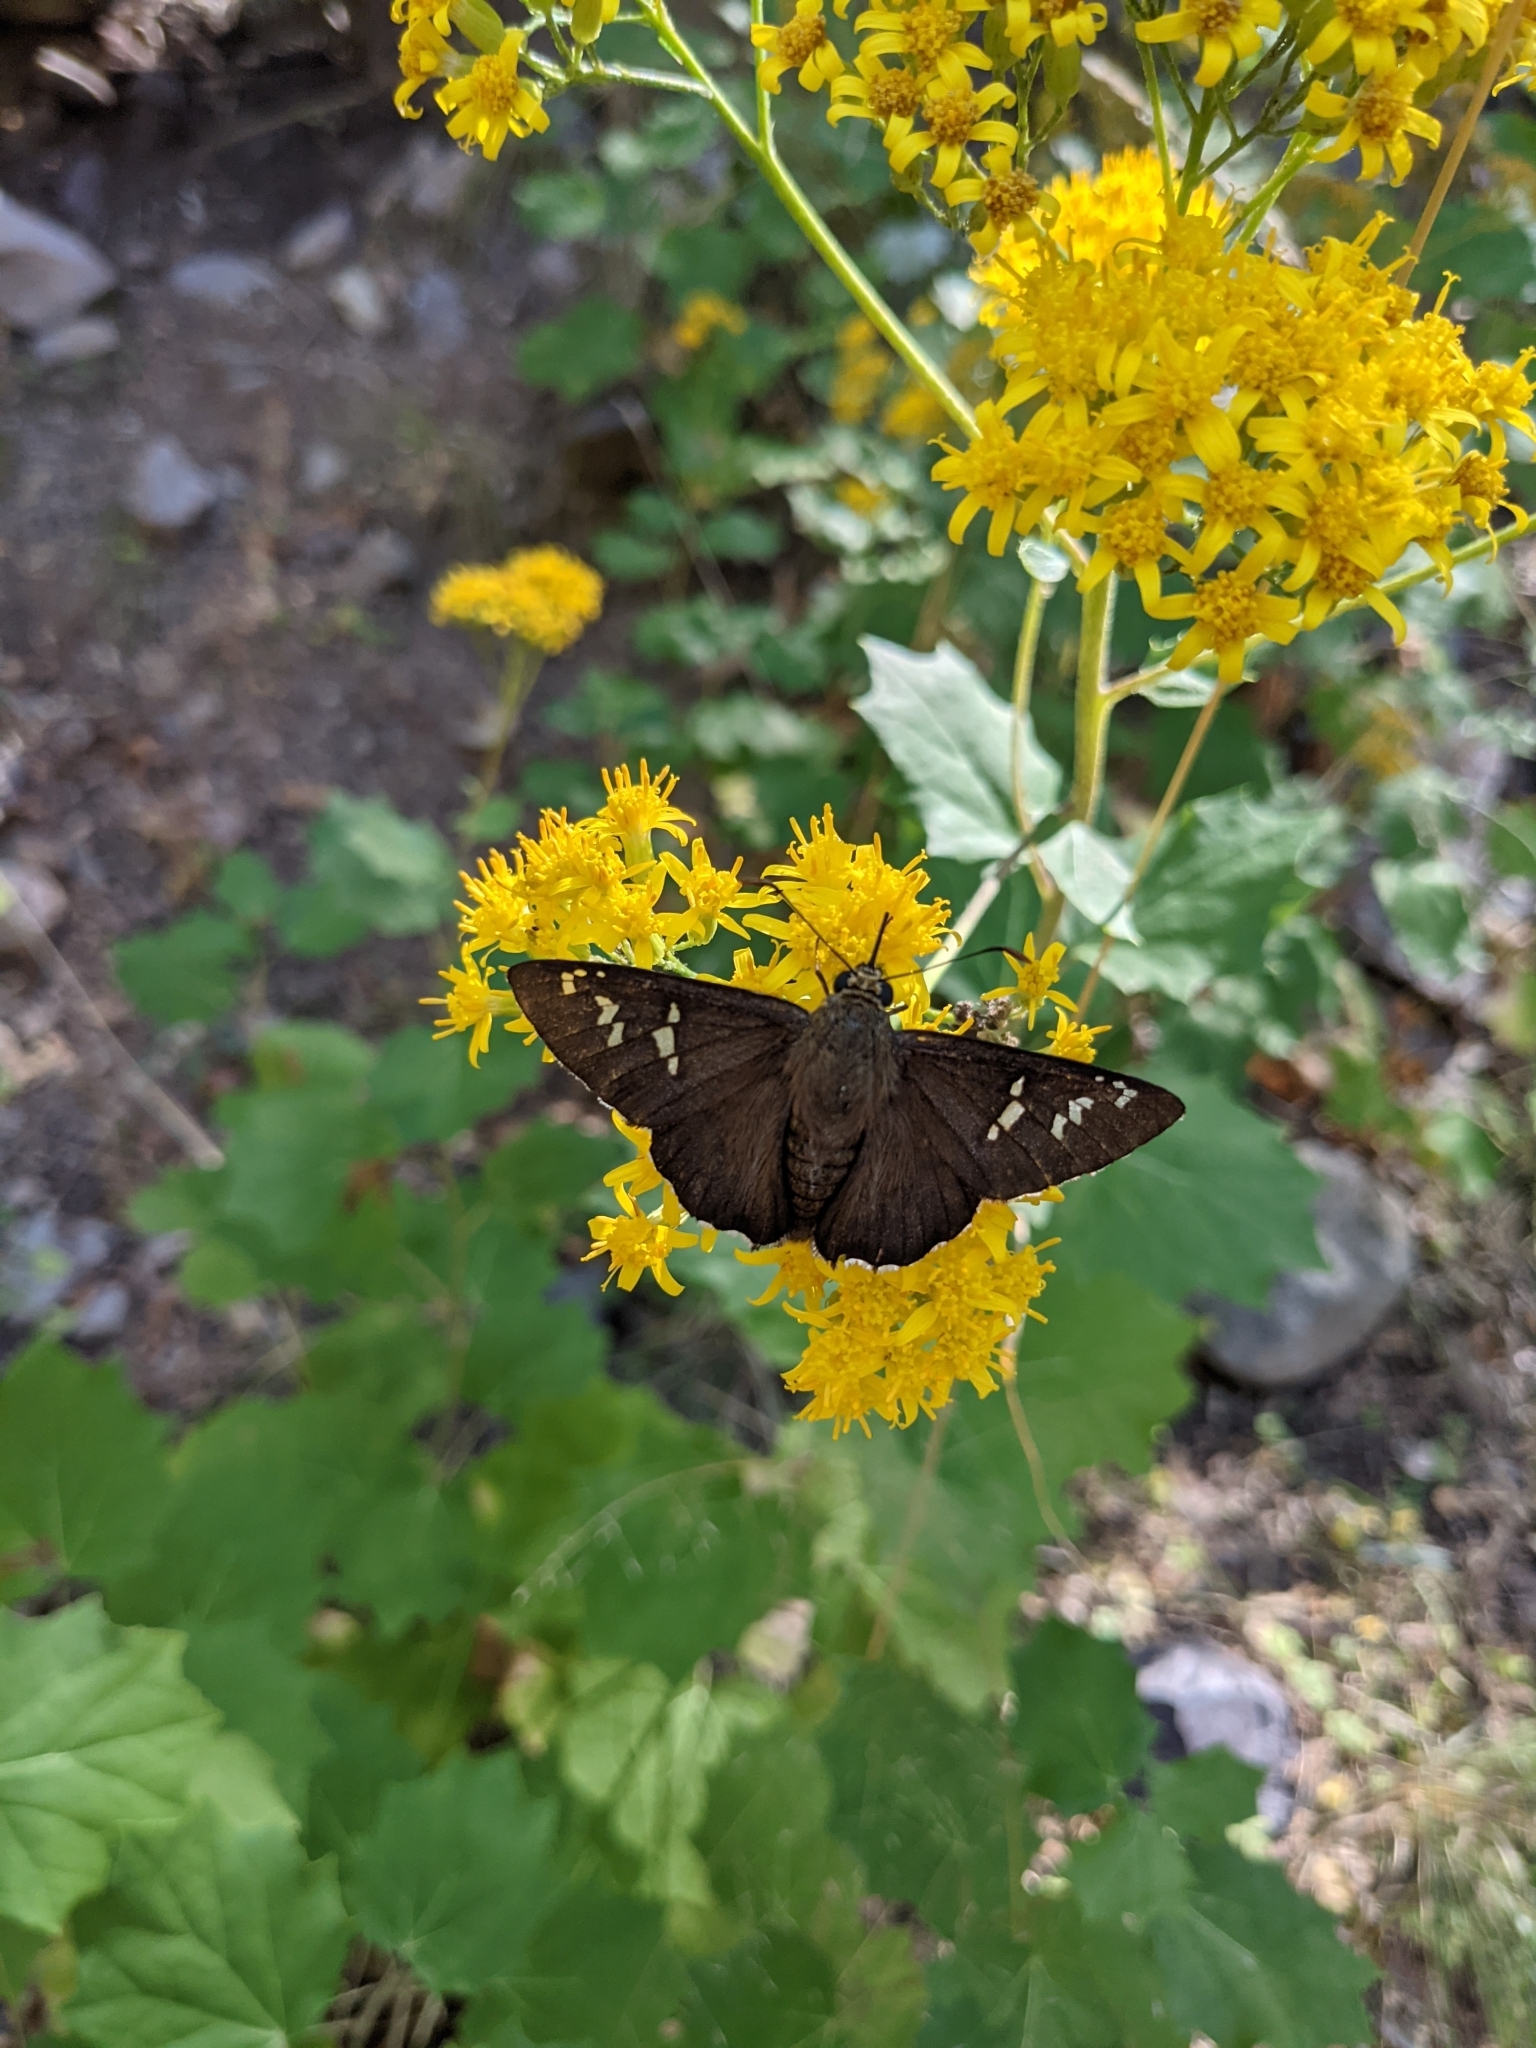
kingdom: Animalia
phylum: Arthropoda
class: Insecta
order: Lepidoptera
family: Hesperiidae
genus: Pyrrhopyge
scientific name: Pyrrhopyge araxes
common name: Dull firetip
